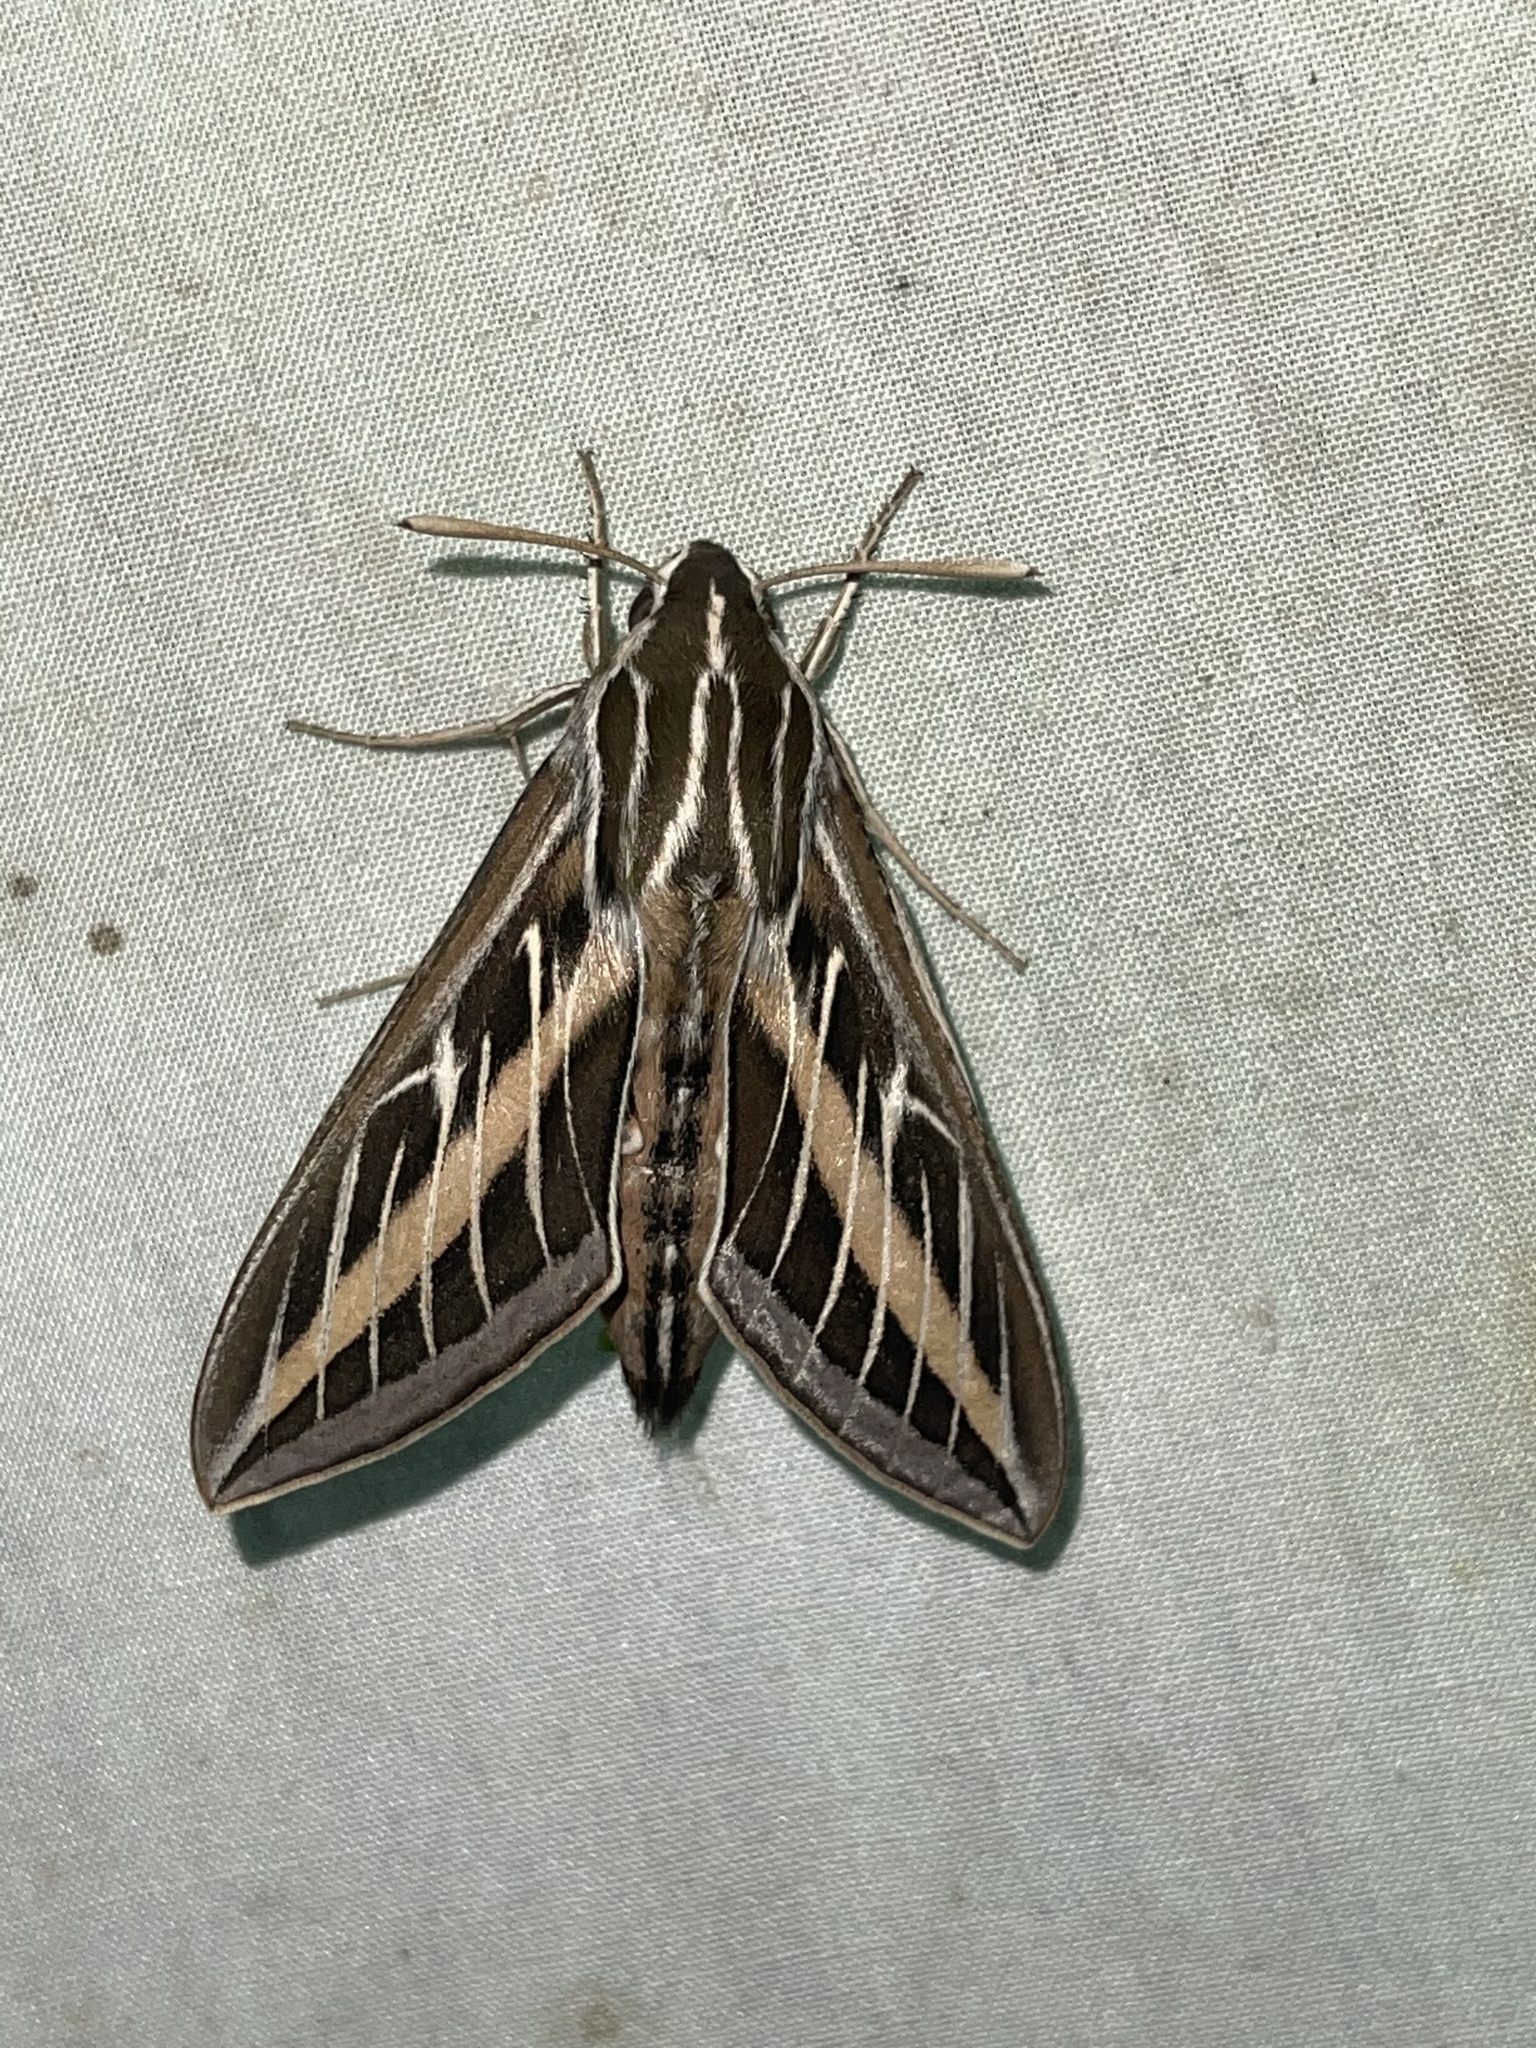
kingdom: Animalia
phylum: Arthropoda
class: Insecta
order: Lepidoptera
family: Sphingidae
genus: Hyles
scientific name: Hyles lineata
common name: White-lined sphinx
